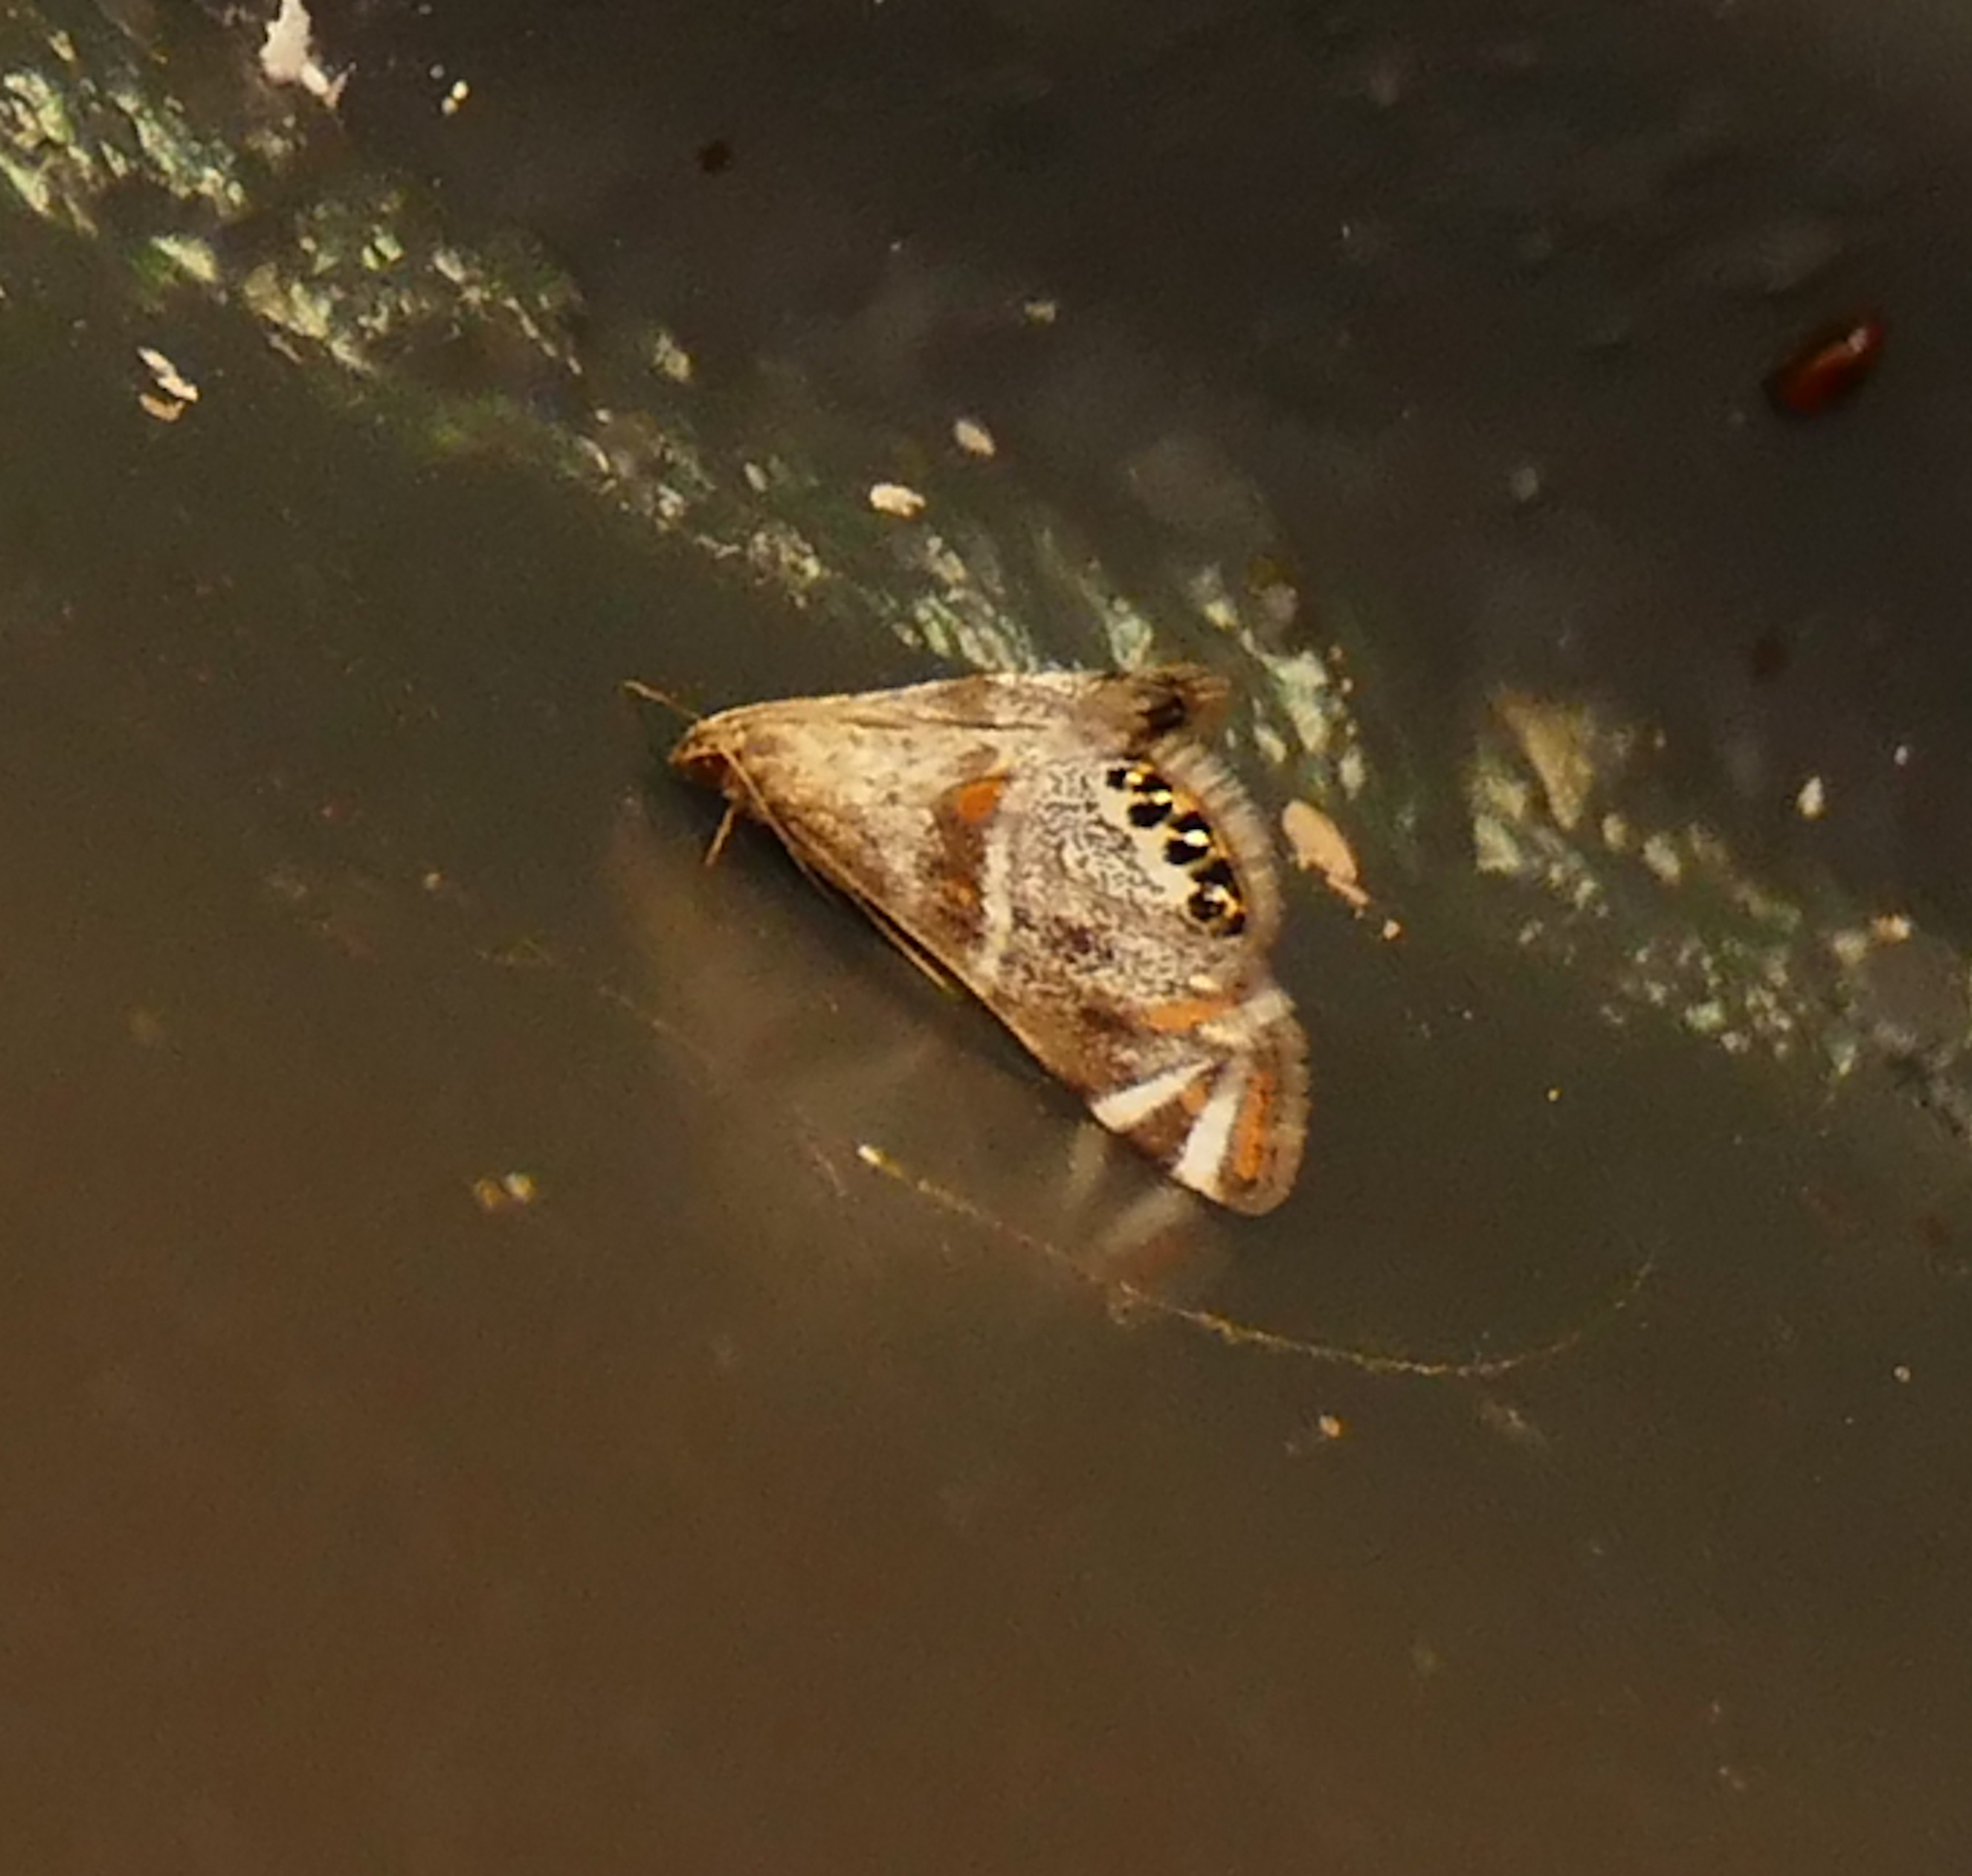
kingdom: Animalia
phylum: Arthropoda
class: Insecta
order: Lepidoptera
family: Crambidae
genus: Petrophila
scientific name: Petrophila jaliscalis
